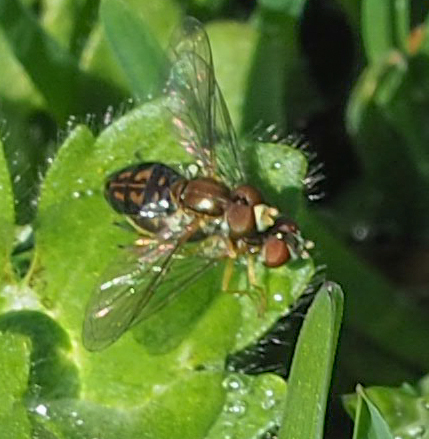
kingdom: Animalia
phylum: Arthropoda
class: Insecta
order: Diptera
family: Syrphidae
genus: Toxomerus
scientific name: Toxomerus marginatus
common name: Syrphid fly
